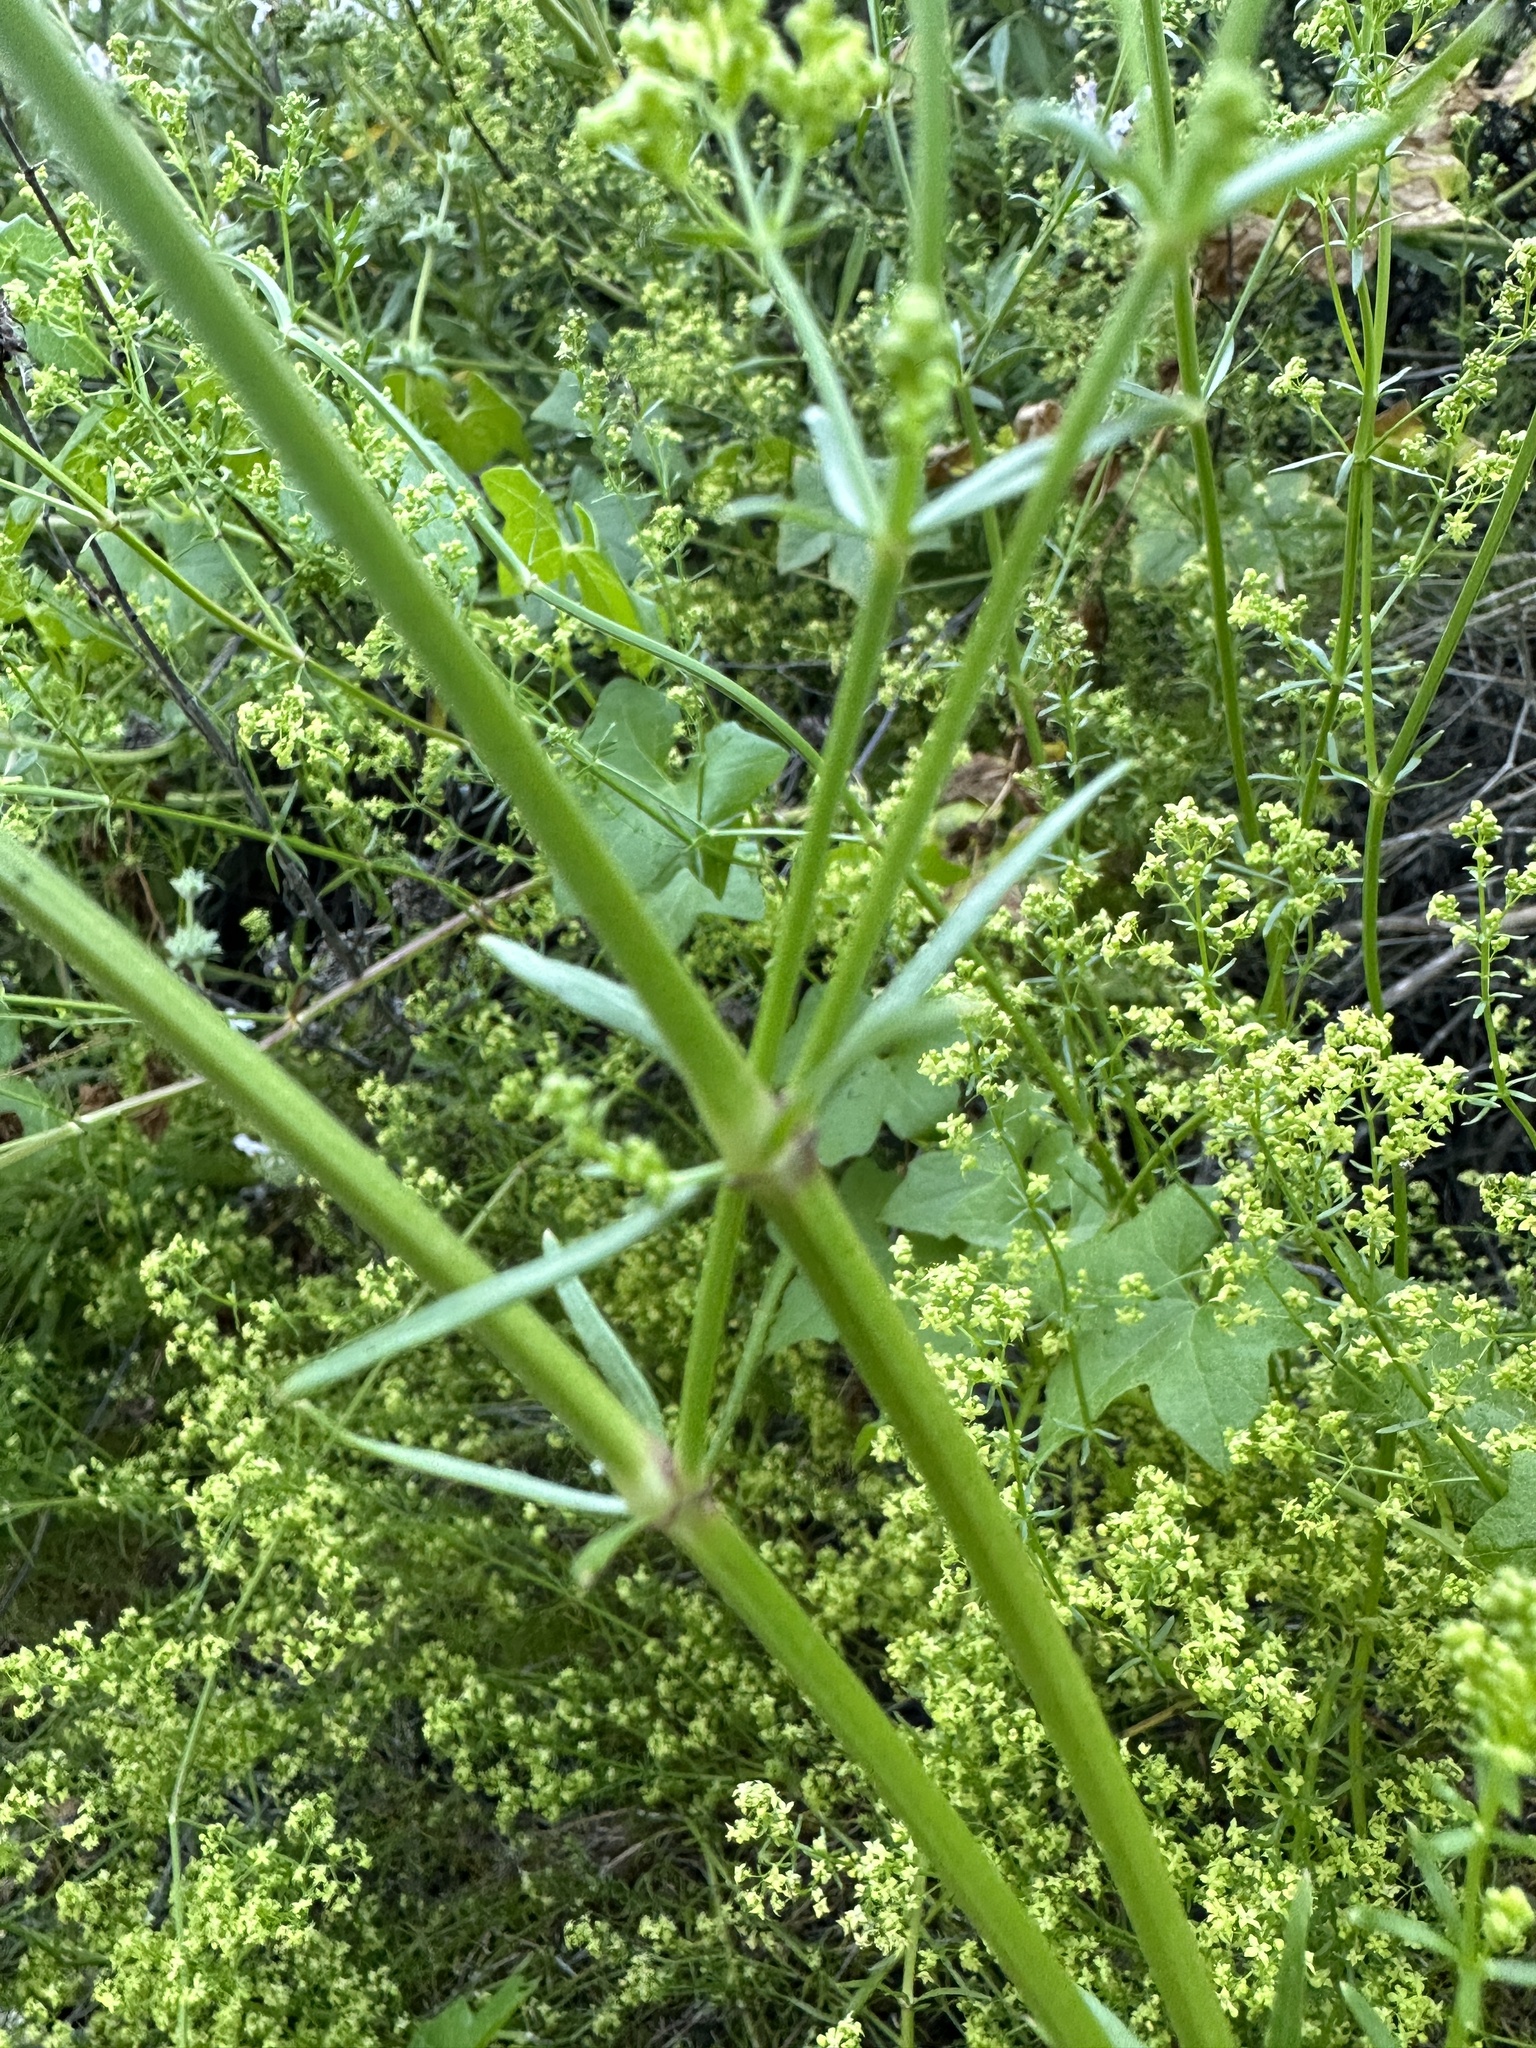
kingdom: Plantae
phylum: Tracheophyta
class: Magnoliopsida
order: Gentianales
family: Rubiaceae
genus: Galium
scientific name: Galium angustifolium
